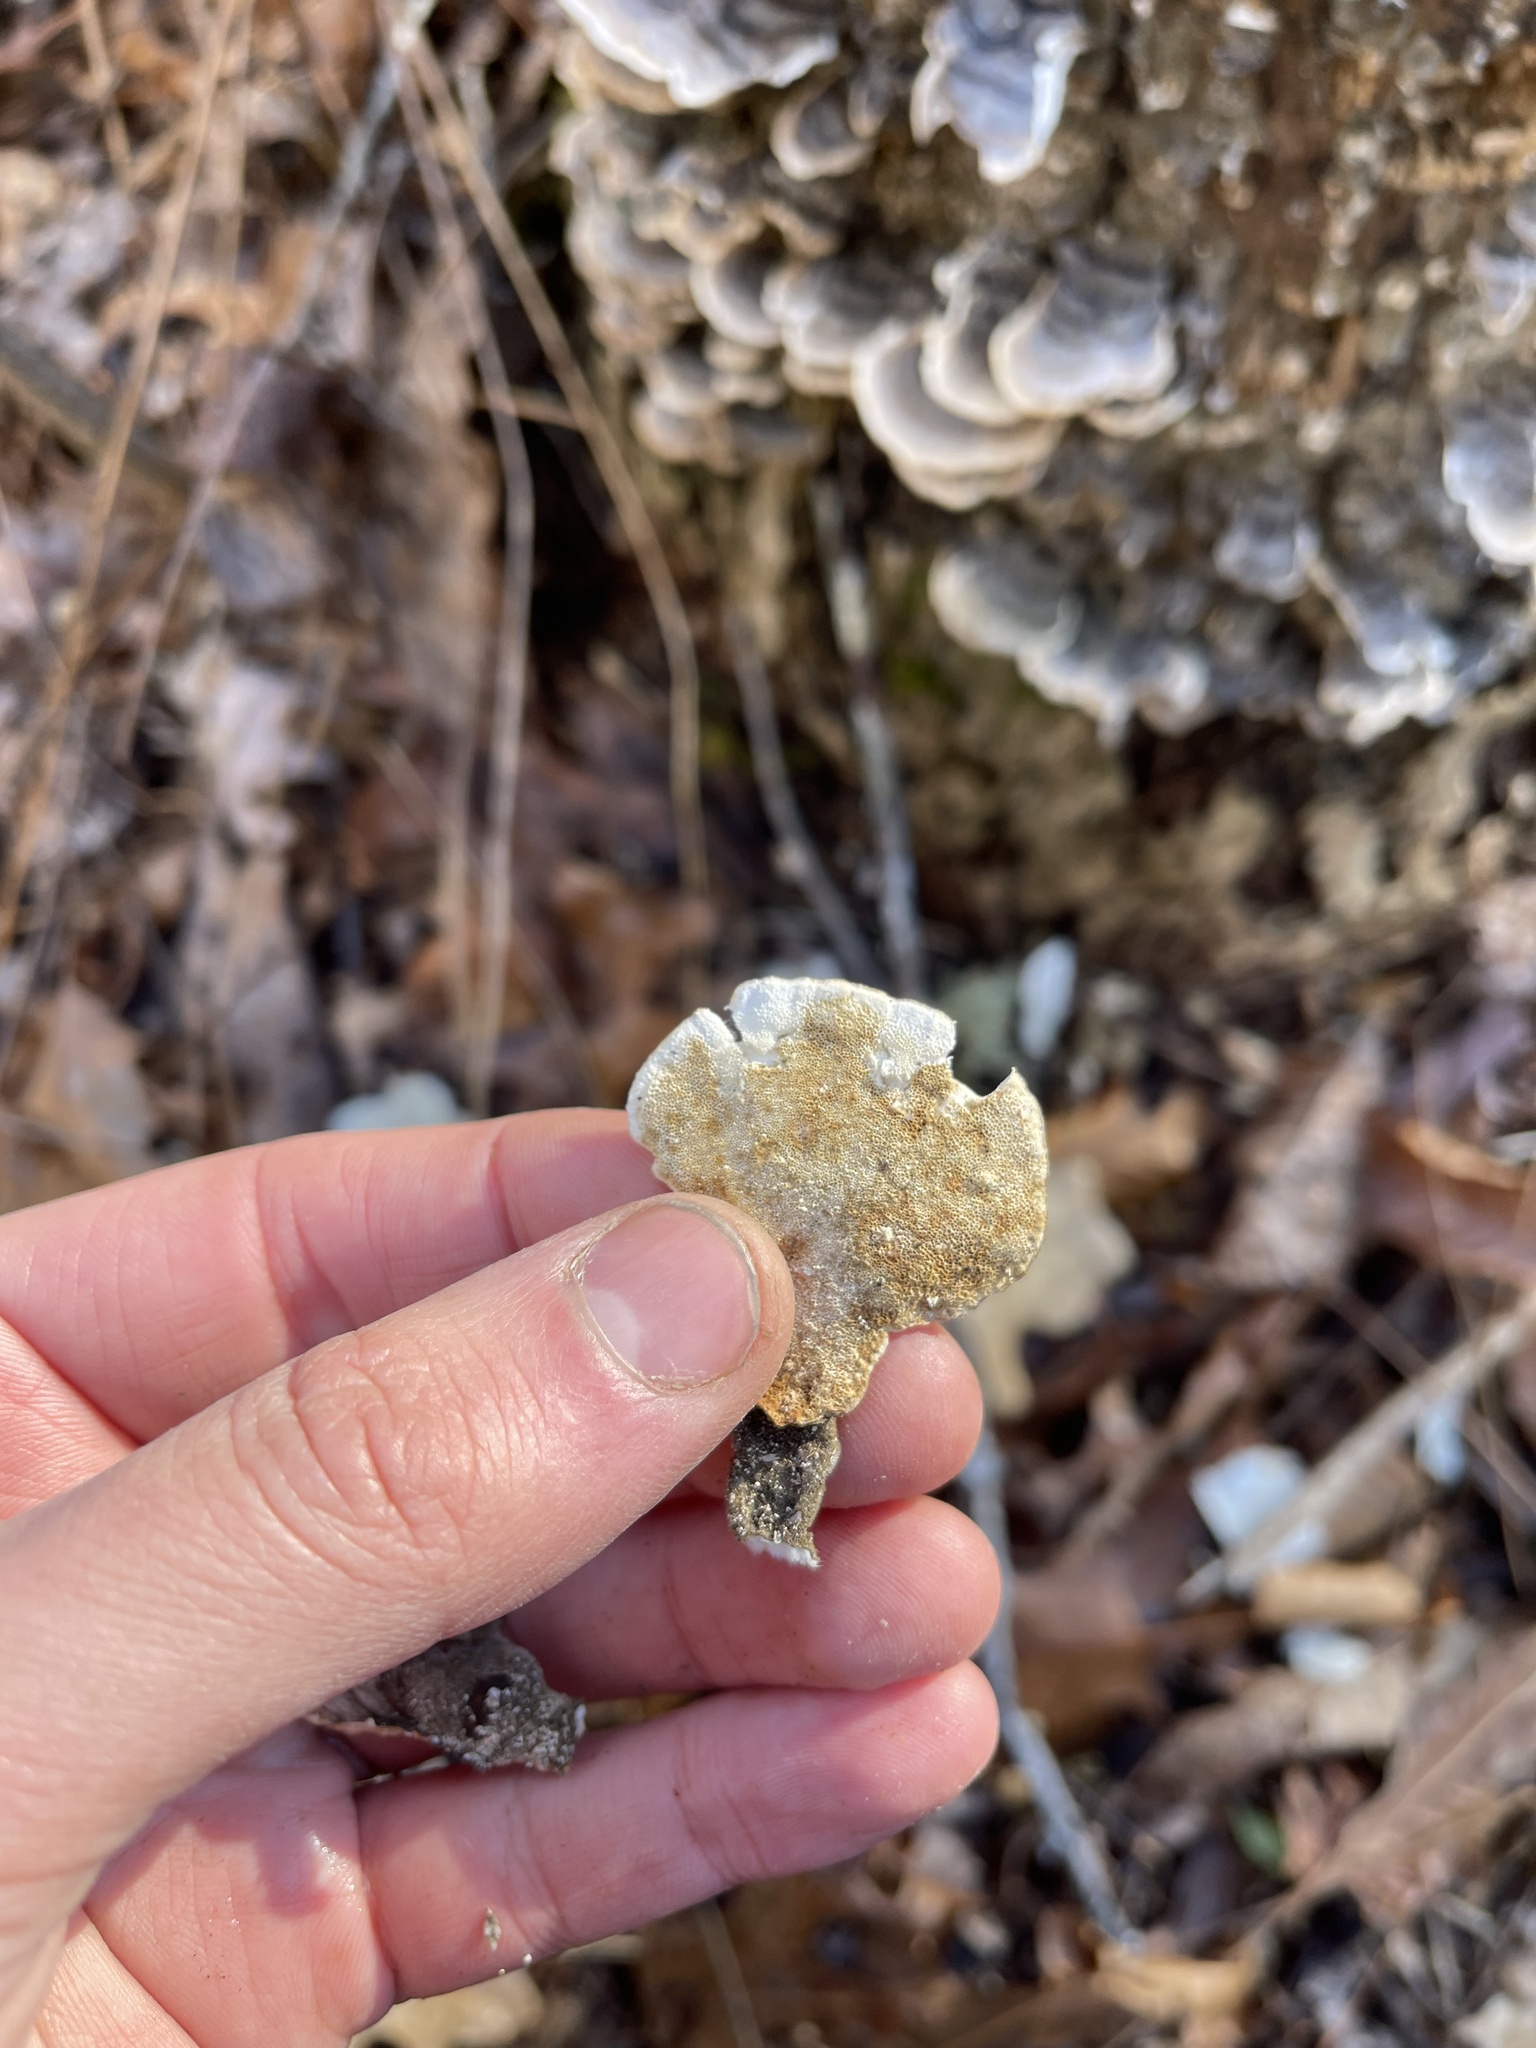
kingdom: Fungi
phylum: Basidiomycota
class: Agaricomycetes
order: Polyporales
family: Polyporaceae
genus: Trametes
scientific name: Trametes versicolor
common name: Turkeytail
